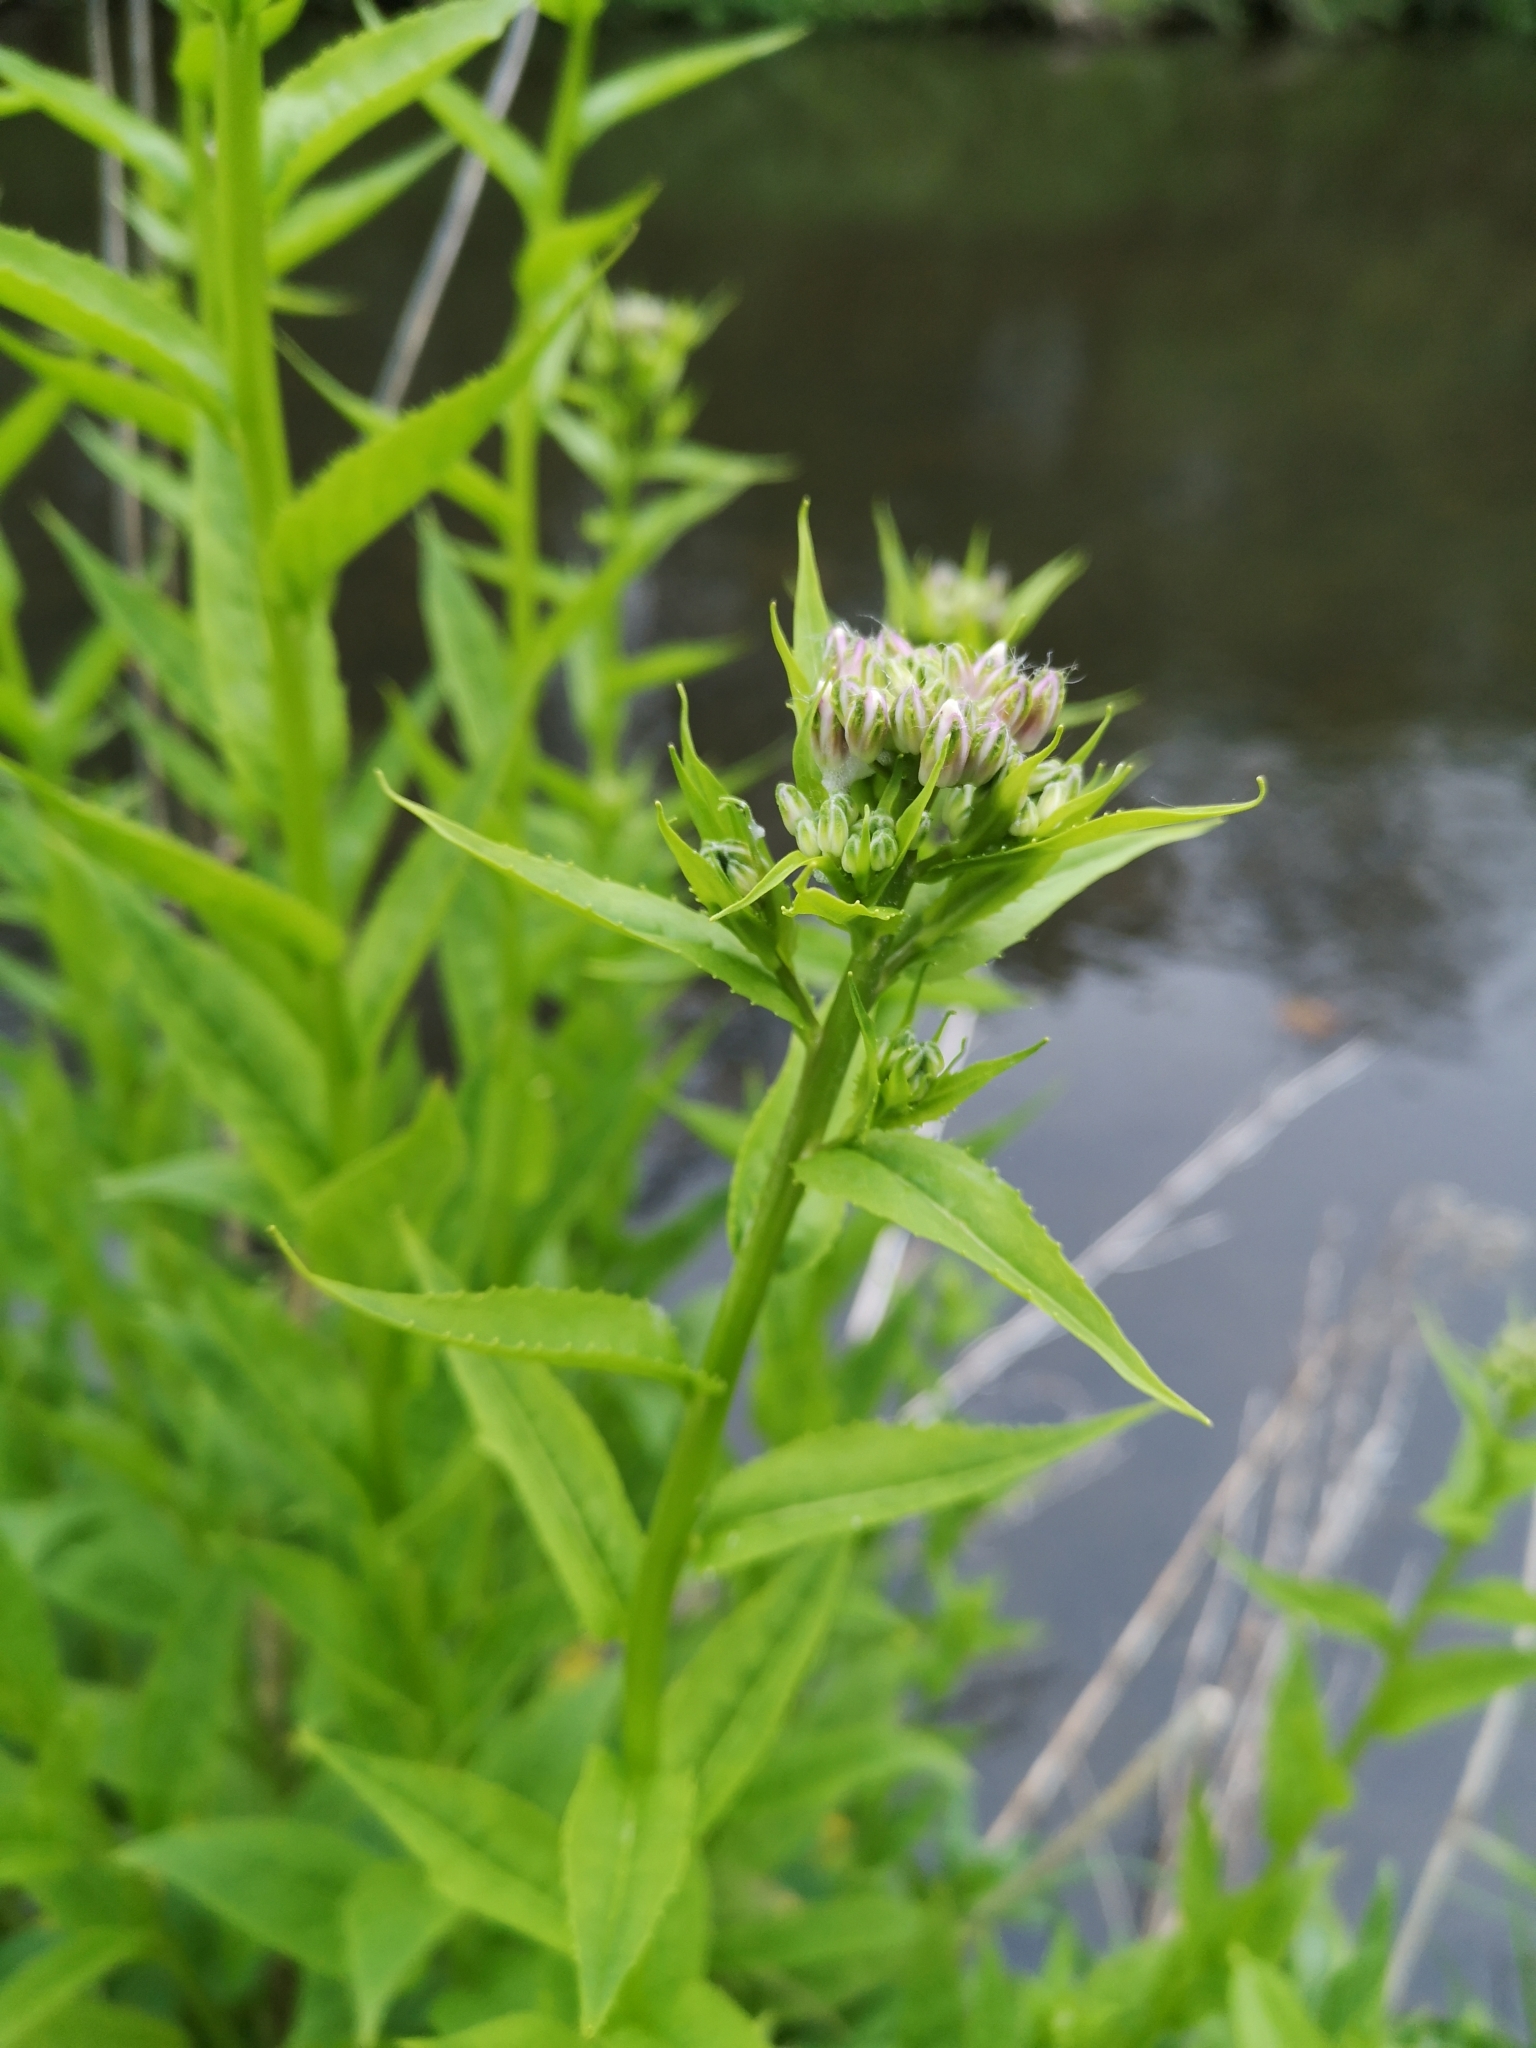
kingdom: Plantae
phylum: Tracheophyta
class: Magnoliopsida
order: Brassicales
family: Brassicaceae
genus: Hesperis
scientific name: Hesperis matronalis
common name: Dame's-violet
